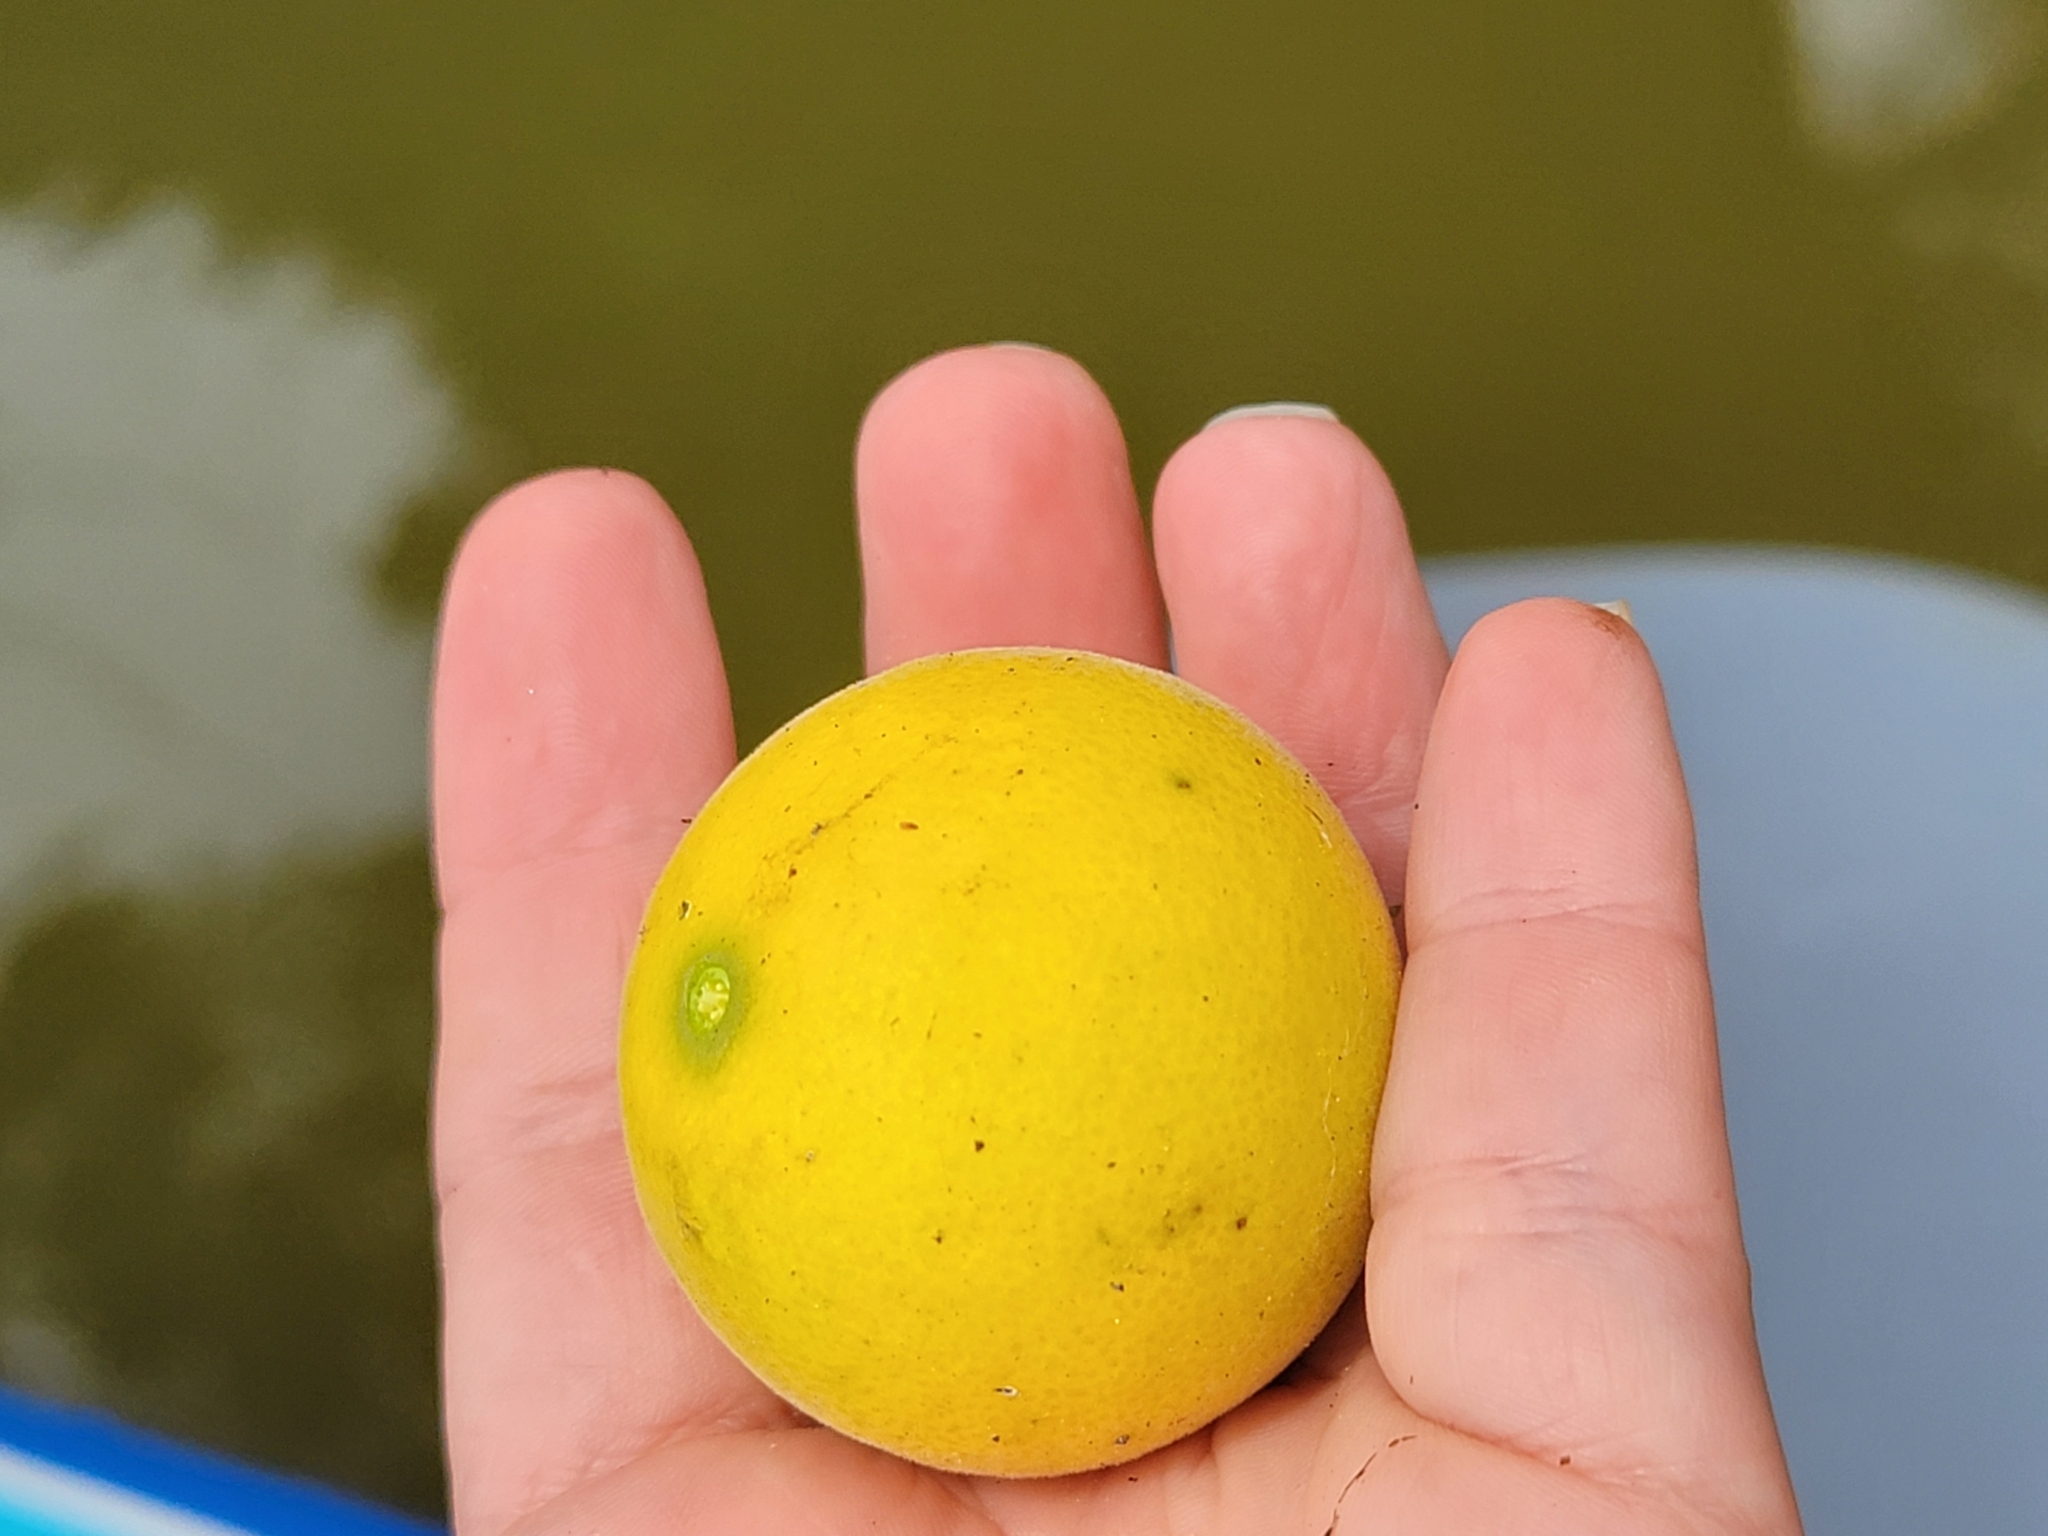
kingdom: Plantae
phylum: Tracheophyta
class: Magnoliopsida
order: Sapindales
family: Rutaceae
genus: Citrus
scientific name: Citrus trifoliata
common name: Japanese bitter-orange
